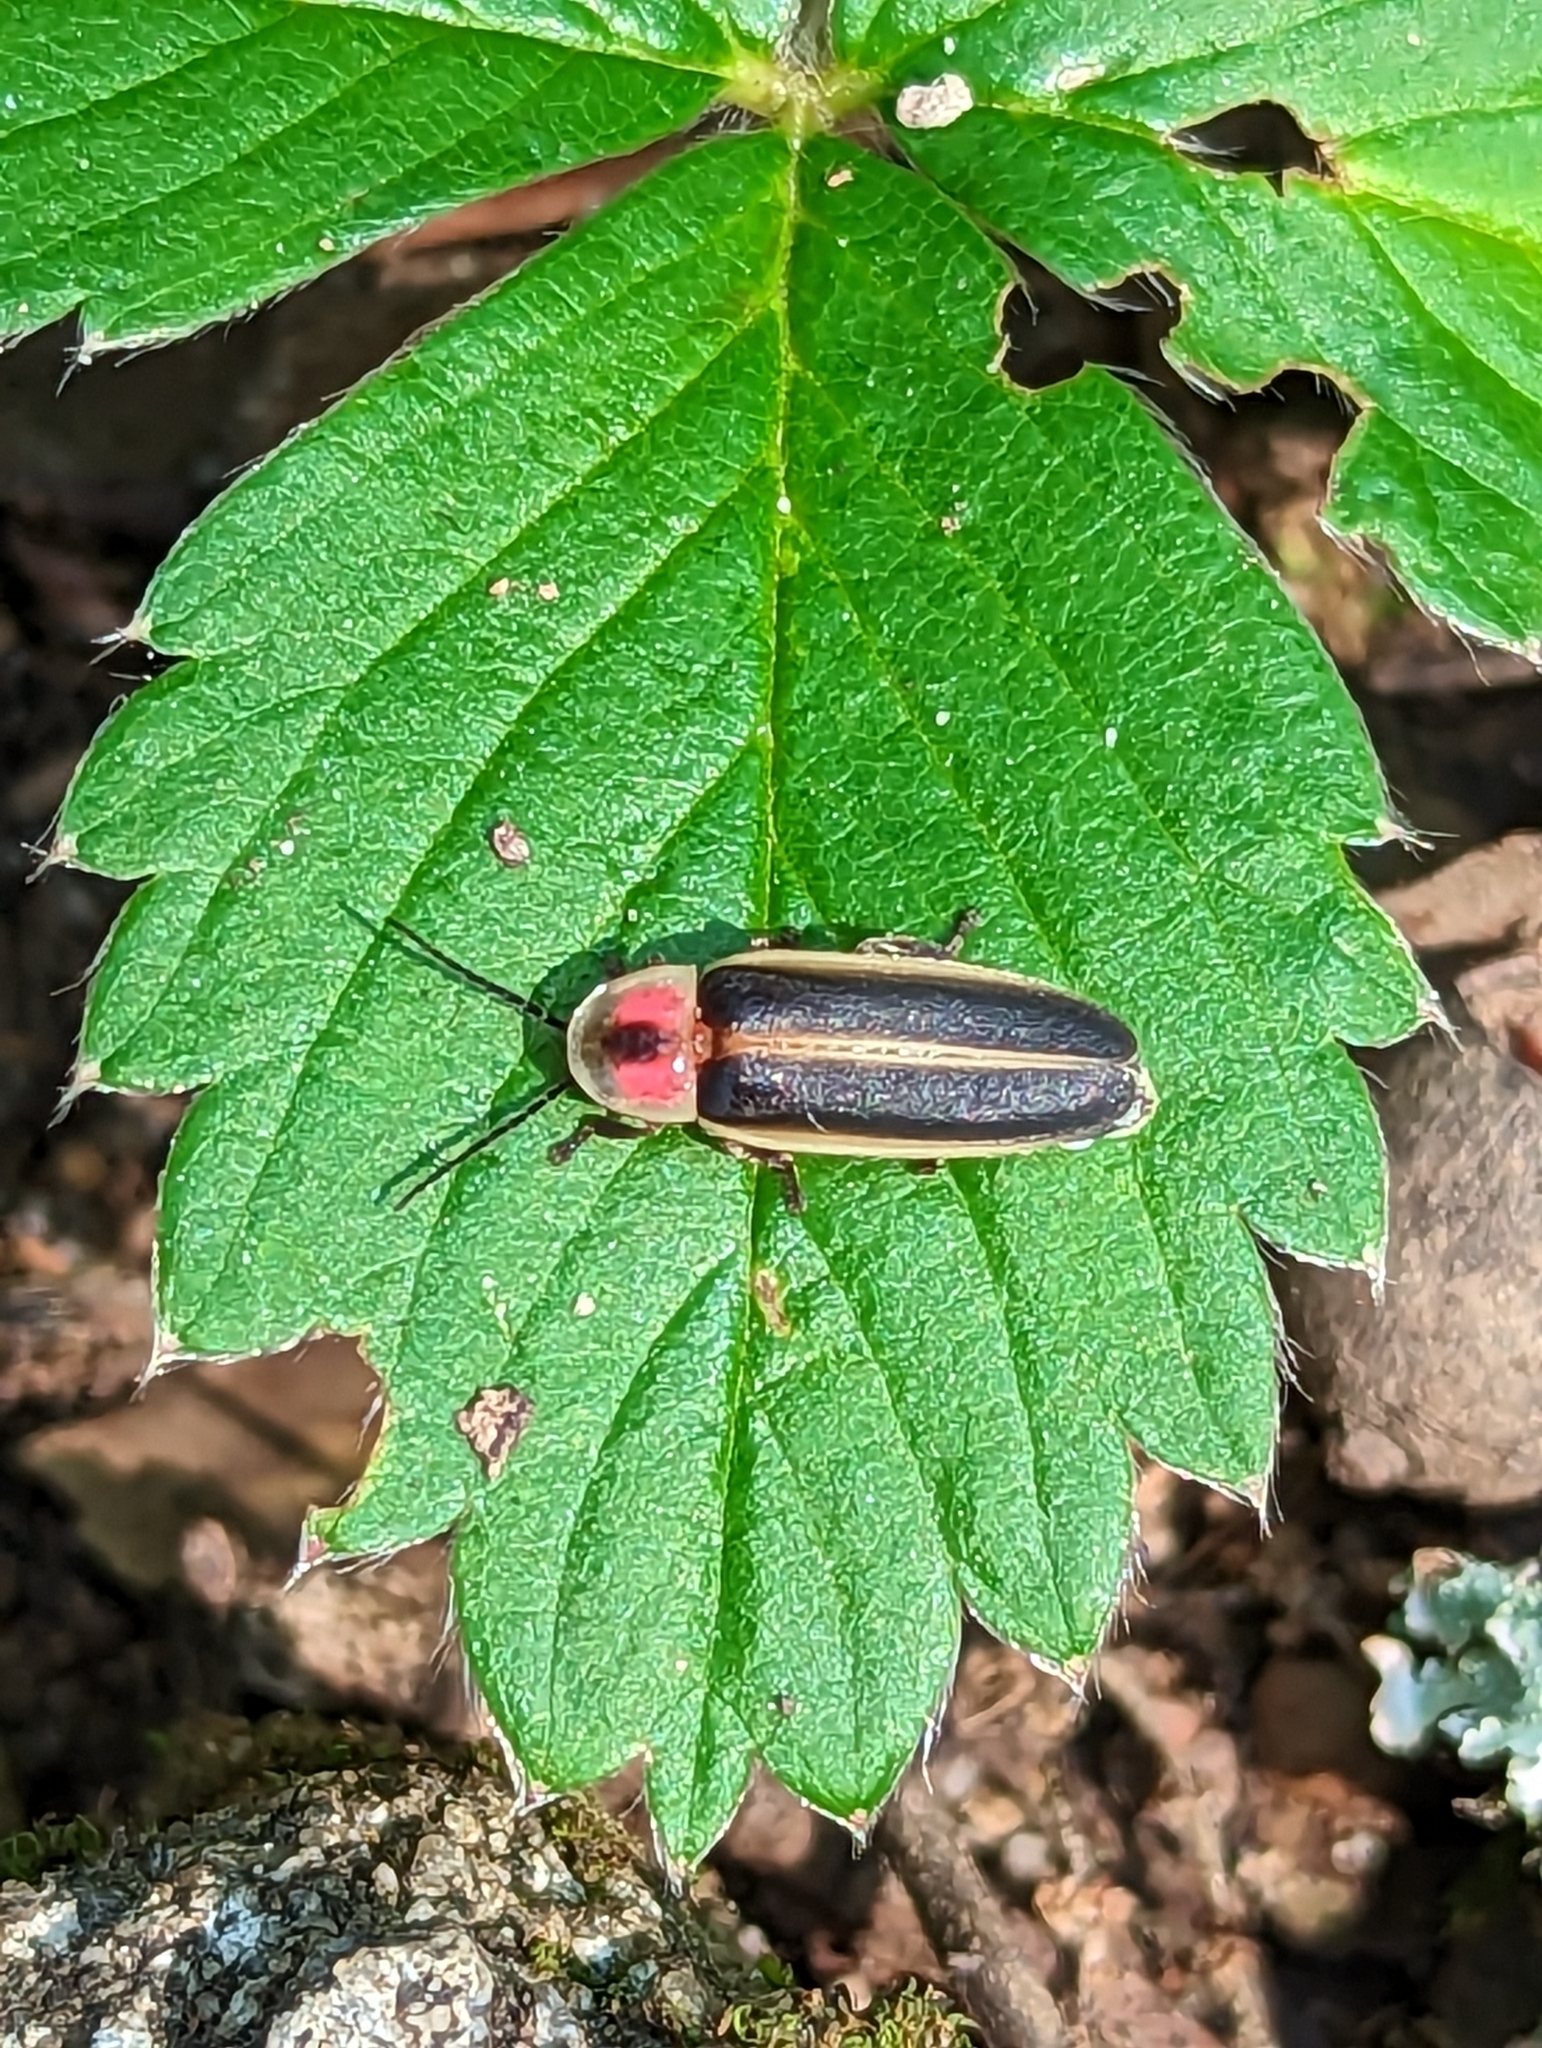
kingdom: Animalia
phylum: Arthropoda
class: Insecta
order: Coleoptera
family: Lampyridae
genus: Photinus
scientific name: Photinus pyralis
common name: Big dipper firefly
